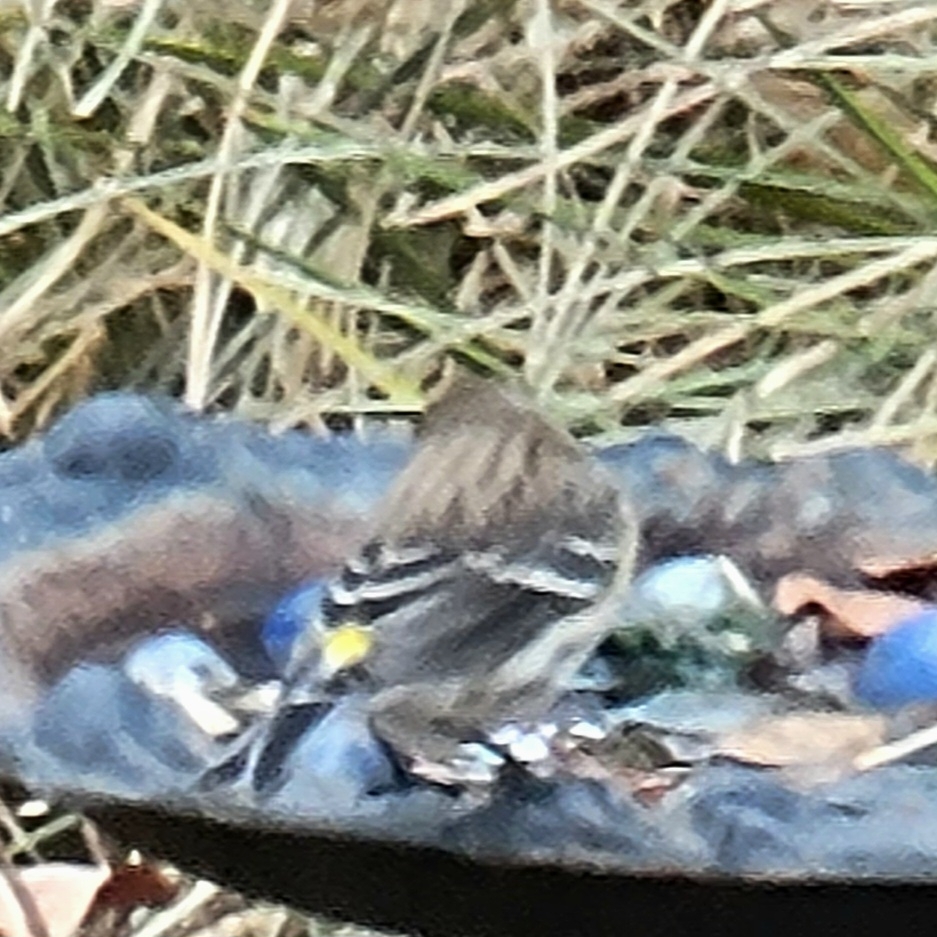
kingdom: Animalia
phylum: Chordata
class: Aves
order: Passeriformes
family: Parulidae
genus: Setophaga
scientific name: Setophaga coronata
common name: Myrtle warbler
